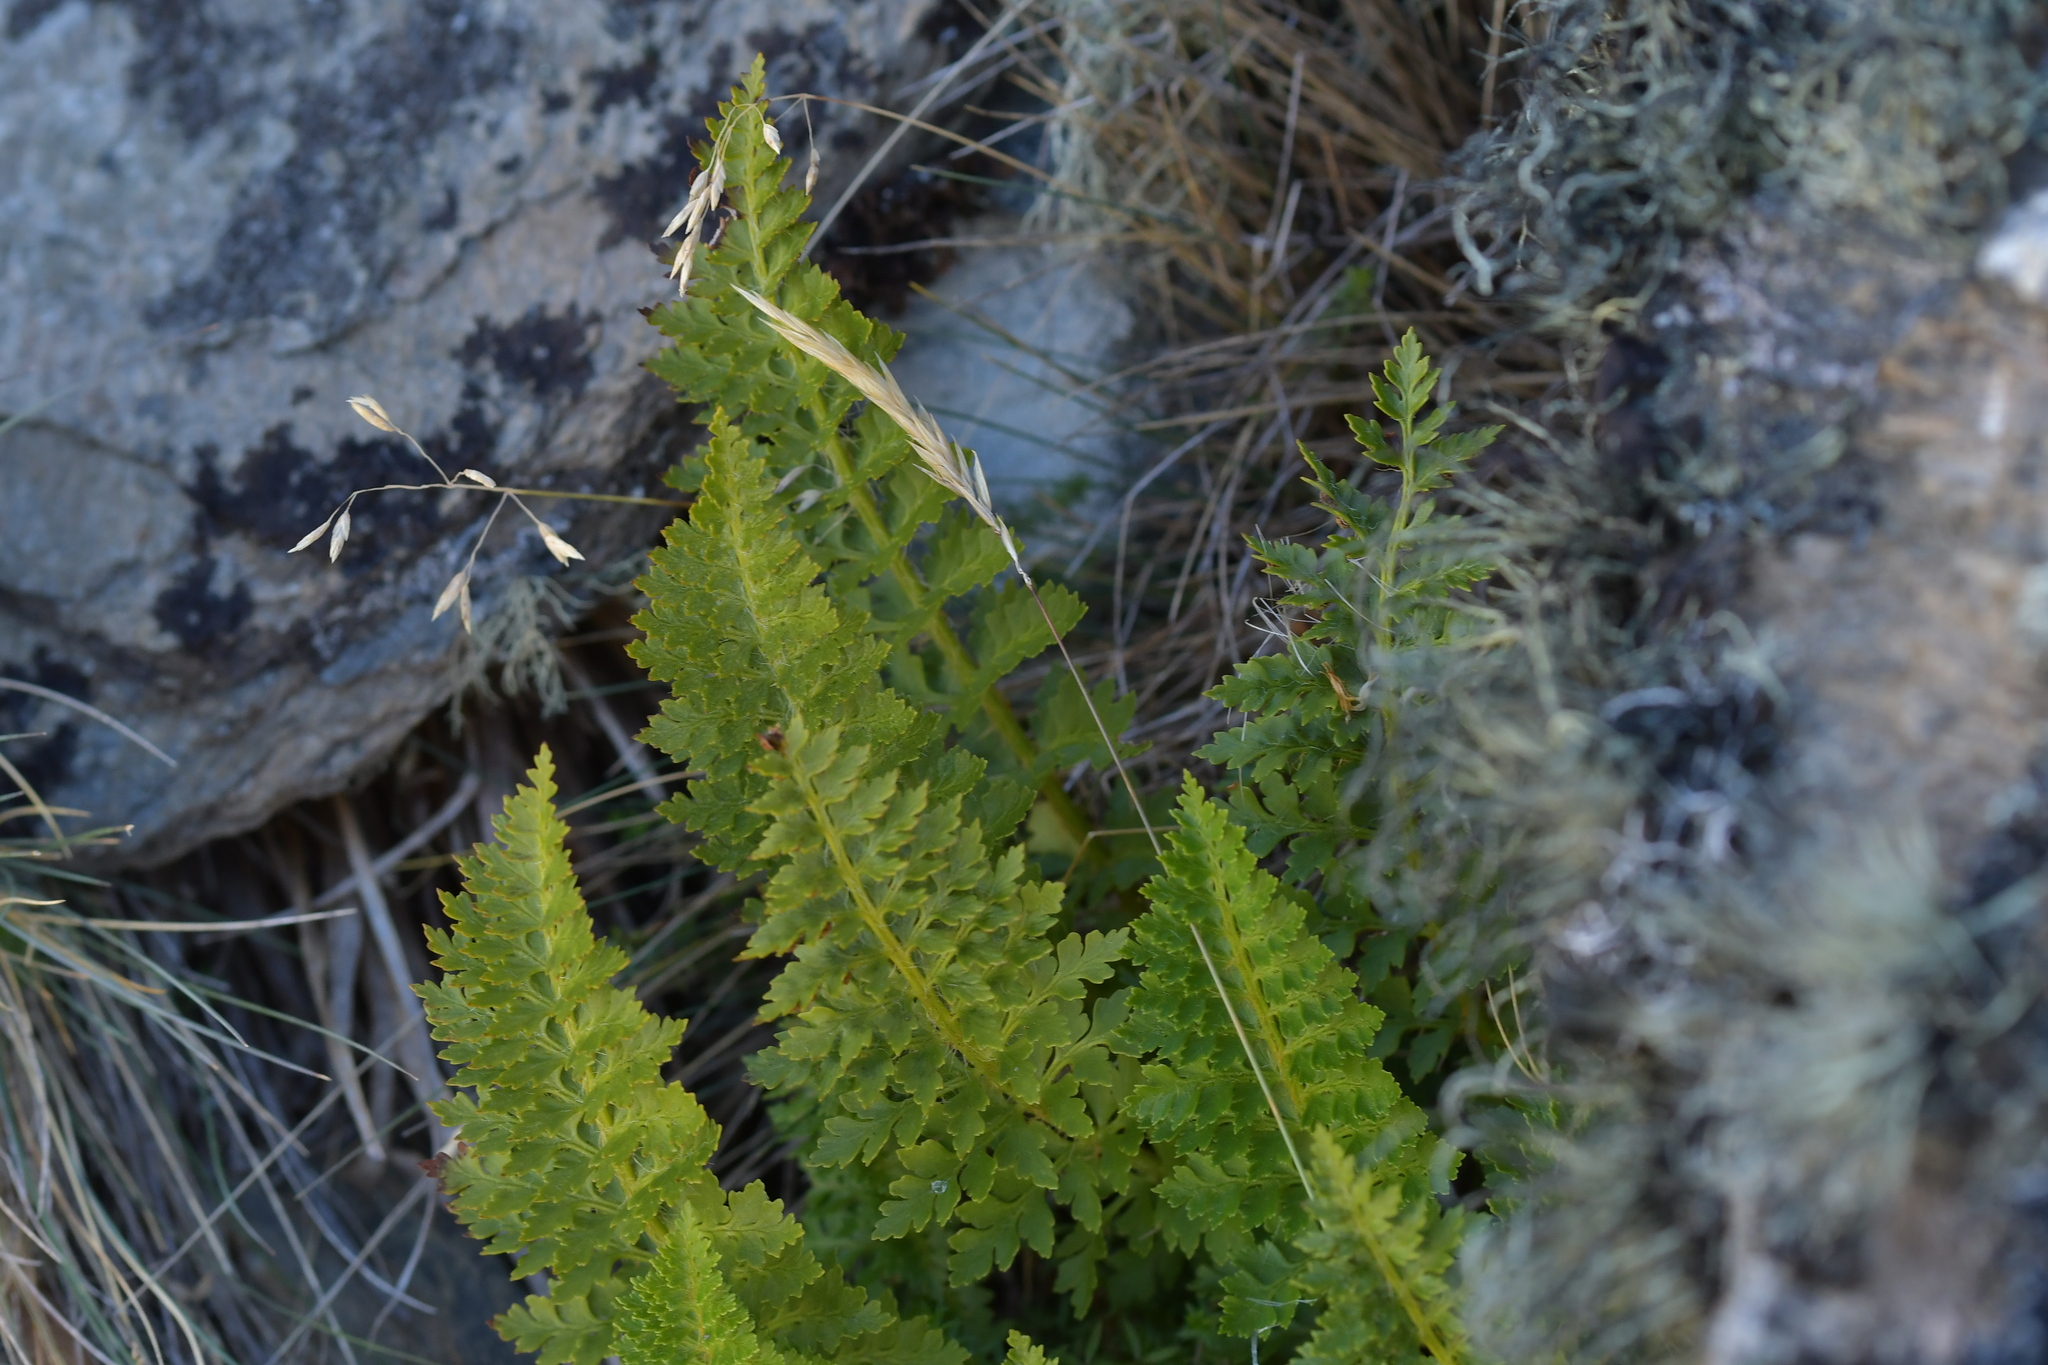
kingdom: Plantae
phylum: Tracheophyta
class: Polypodiopsida
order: Polypodiales
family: Dryopteridaceae
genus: Polystichum
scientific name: Polystichum cystostegia
